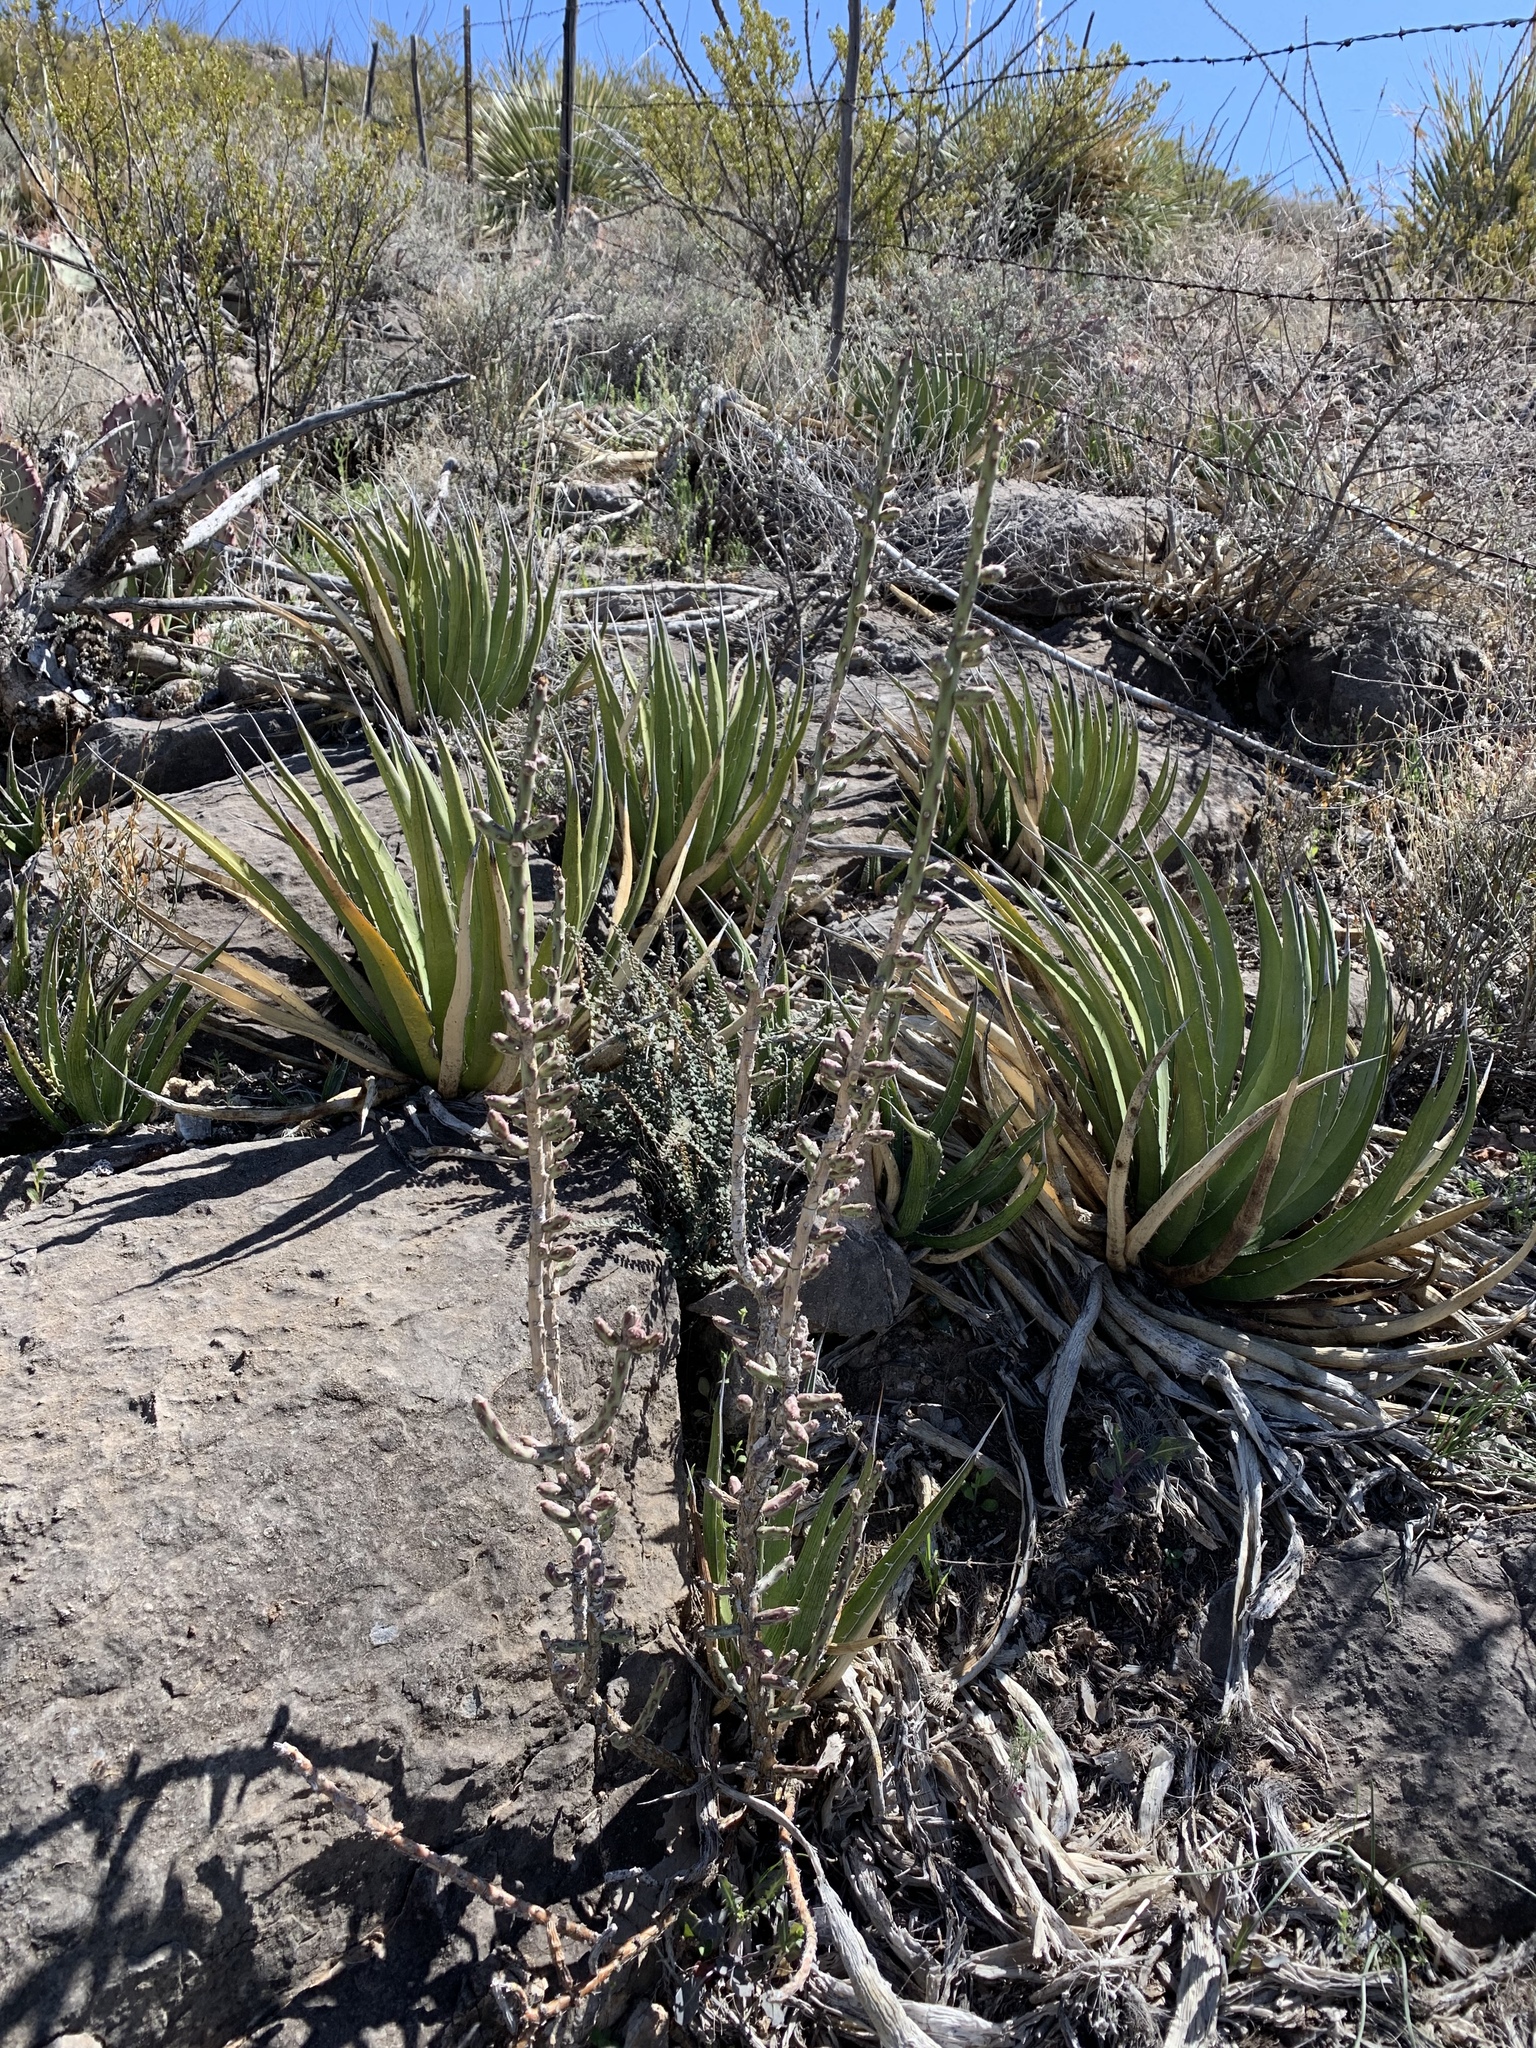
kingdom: Plantae
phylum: Tracheophyta
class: Liliopsida
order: Asparagales
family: Asparagaceae
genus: Agave
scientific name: Agave lechuguilla
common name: Lecheguilla agave
